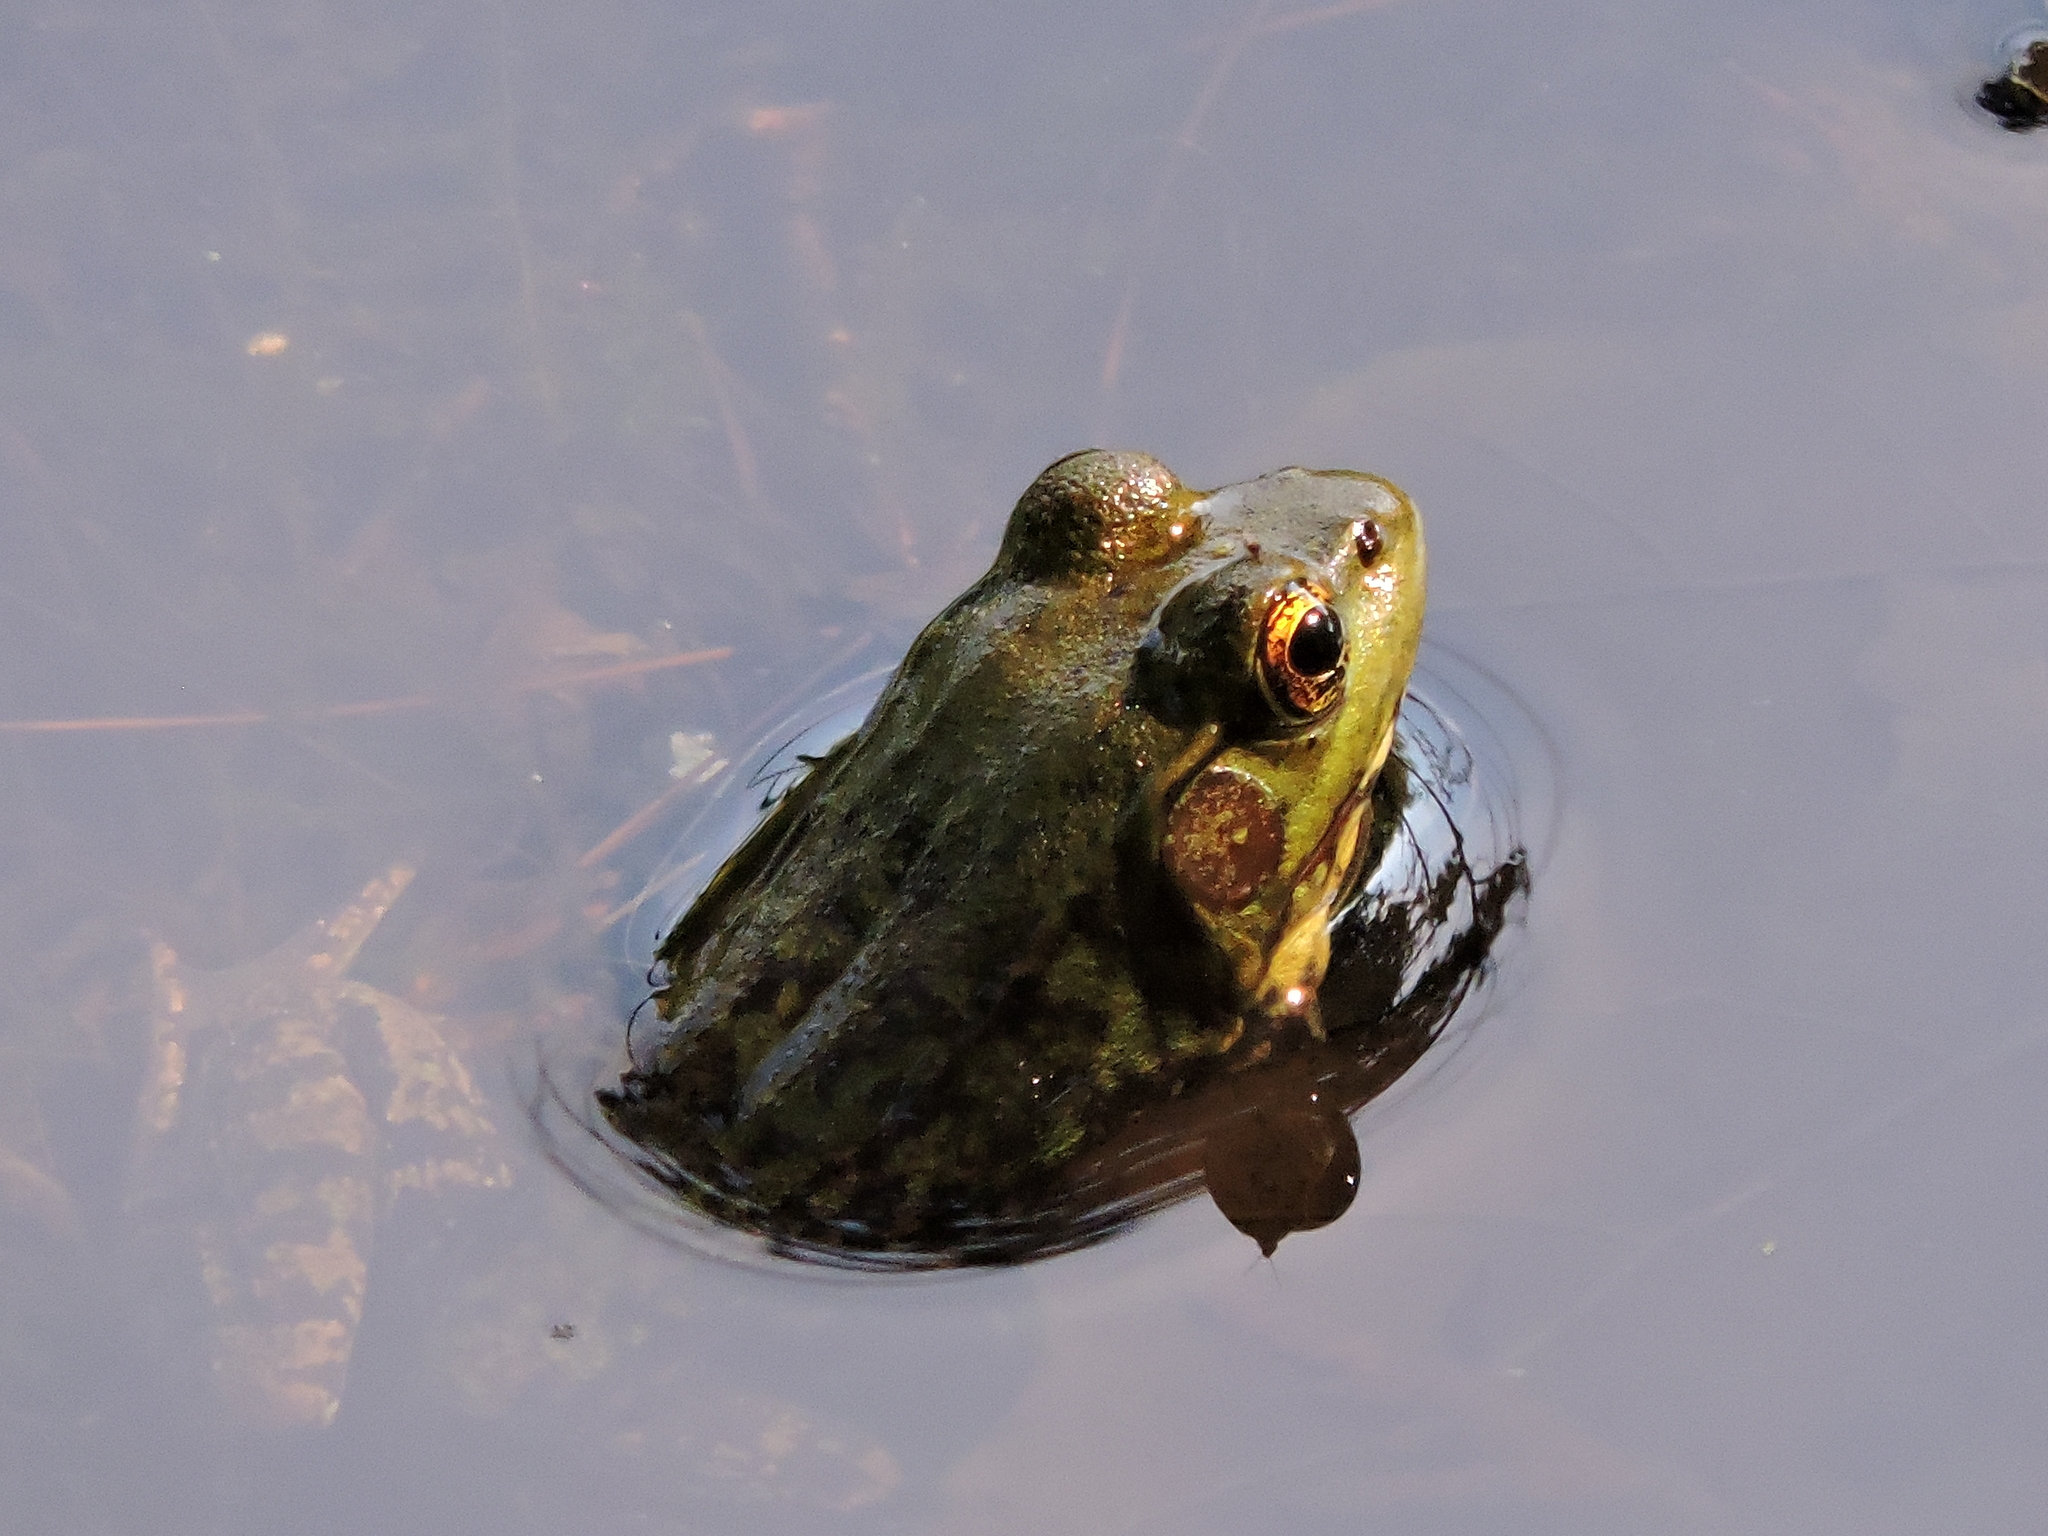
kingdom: Animalia
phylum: Chordata
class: Amphibia
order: Anura
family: Ranidae
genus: Lithobates
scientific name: Lithobates clamitans
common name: Green frog
